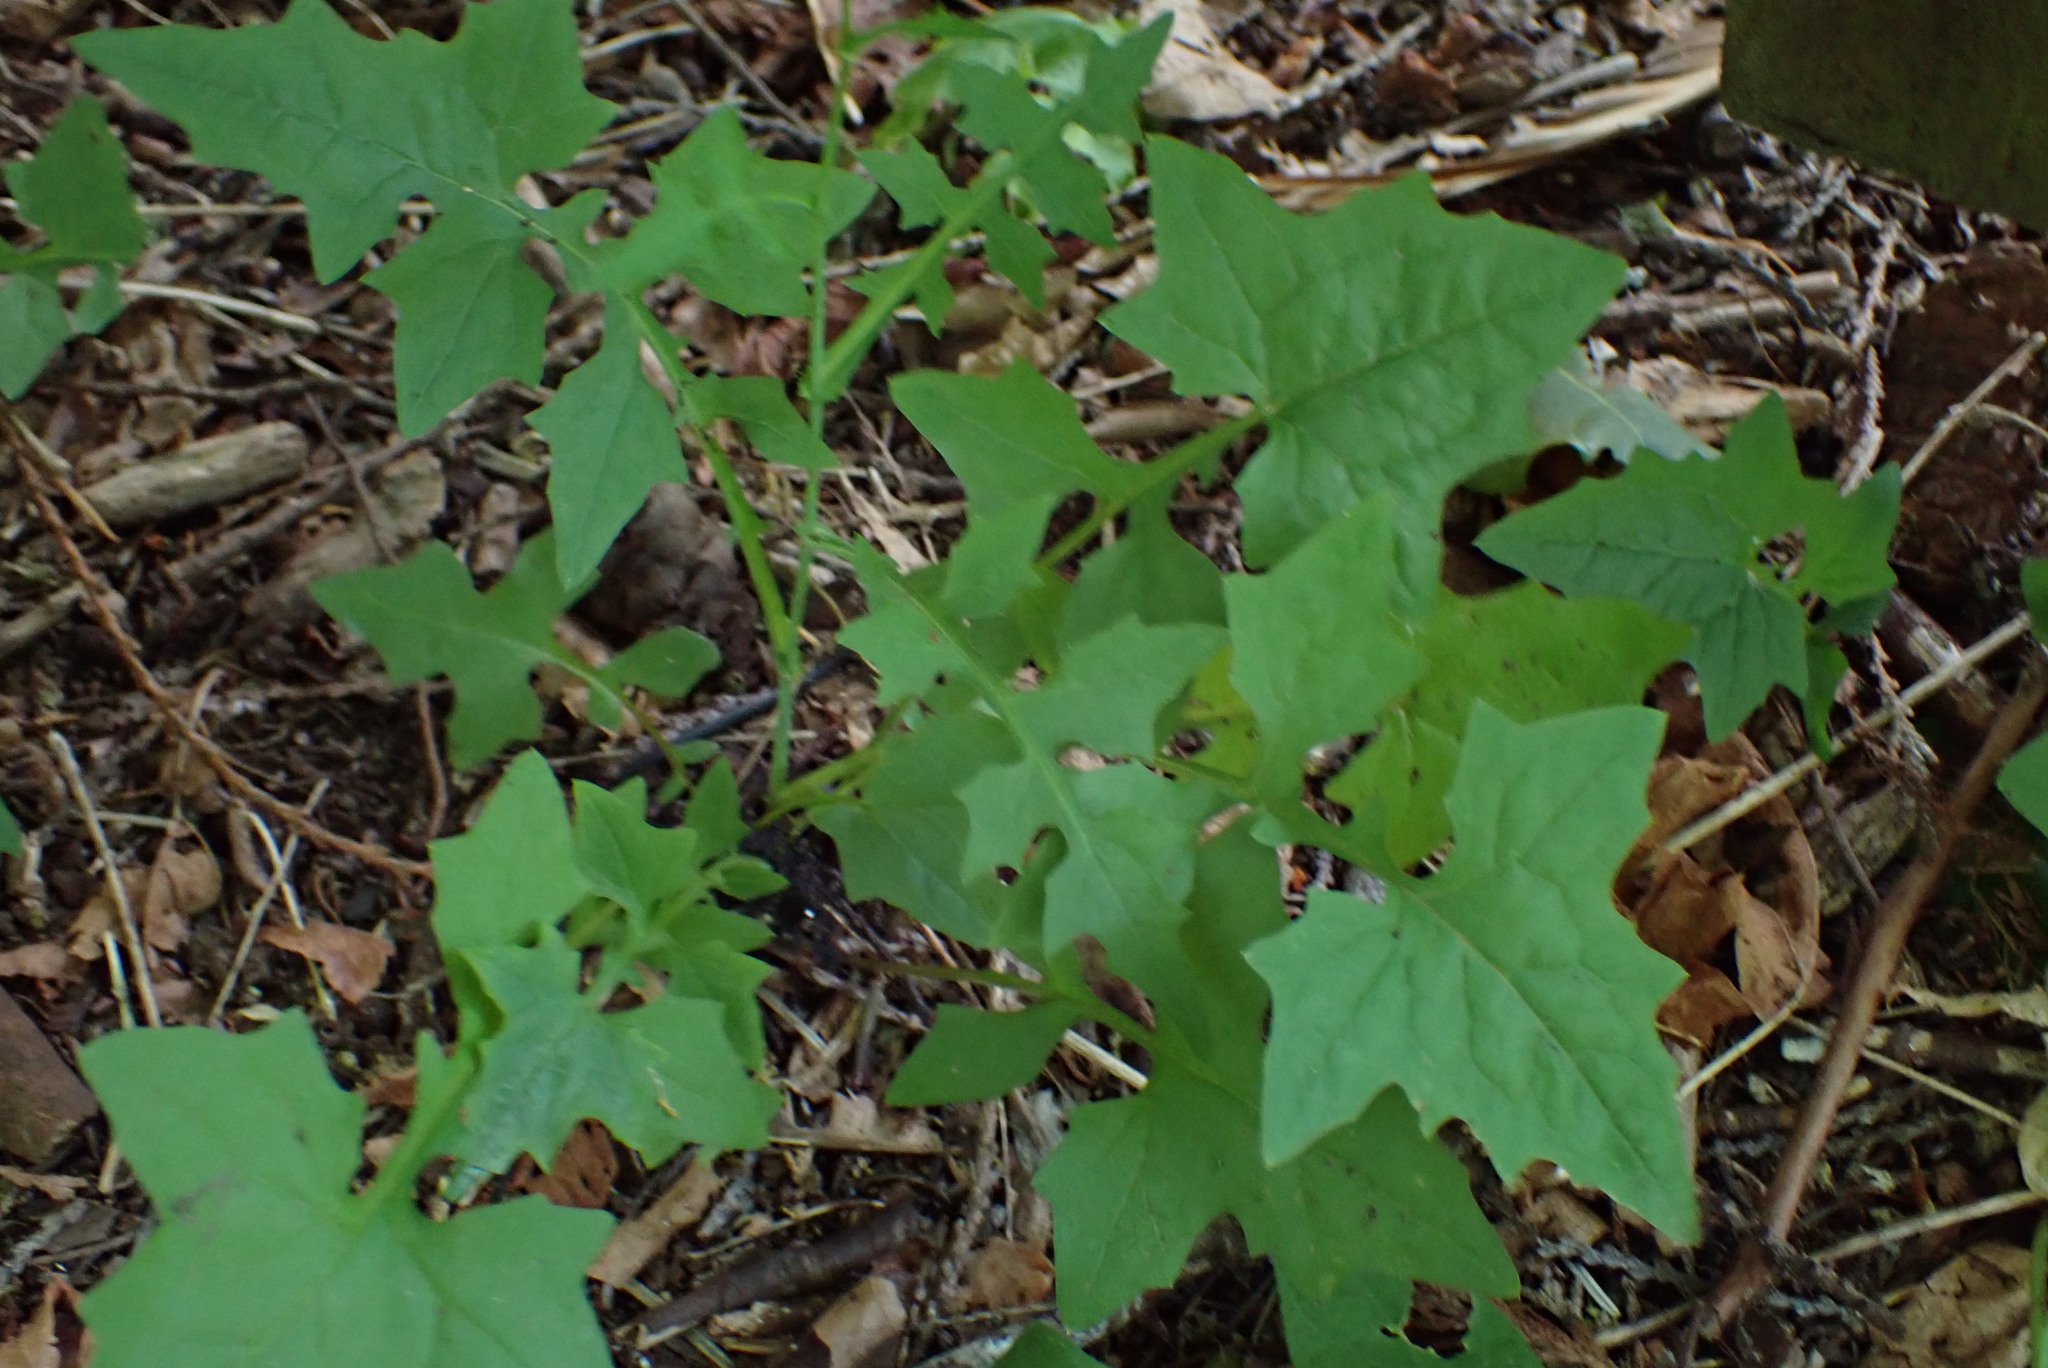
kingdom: Plantae
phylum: Tracheophyta
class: Magnoliopsida
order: Asterales
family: Asteraceae
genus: Mycelis
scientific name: Mycelis muralis
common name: Wall lettuce
